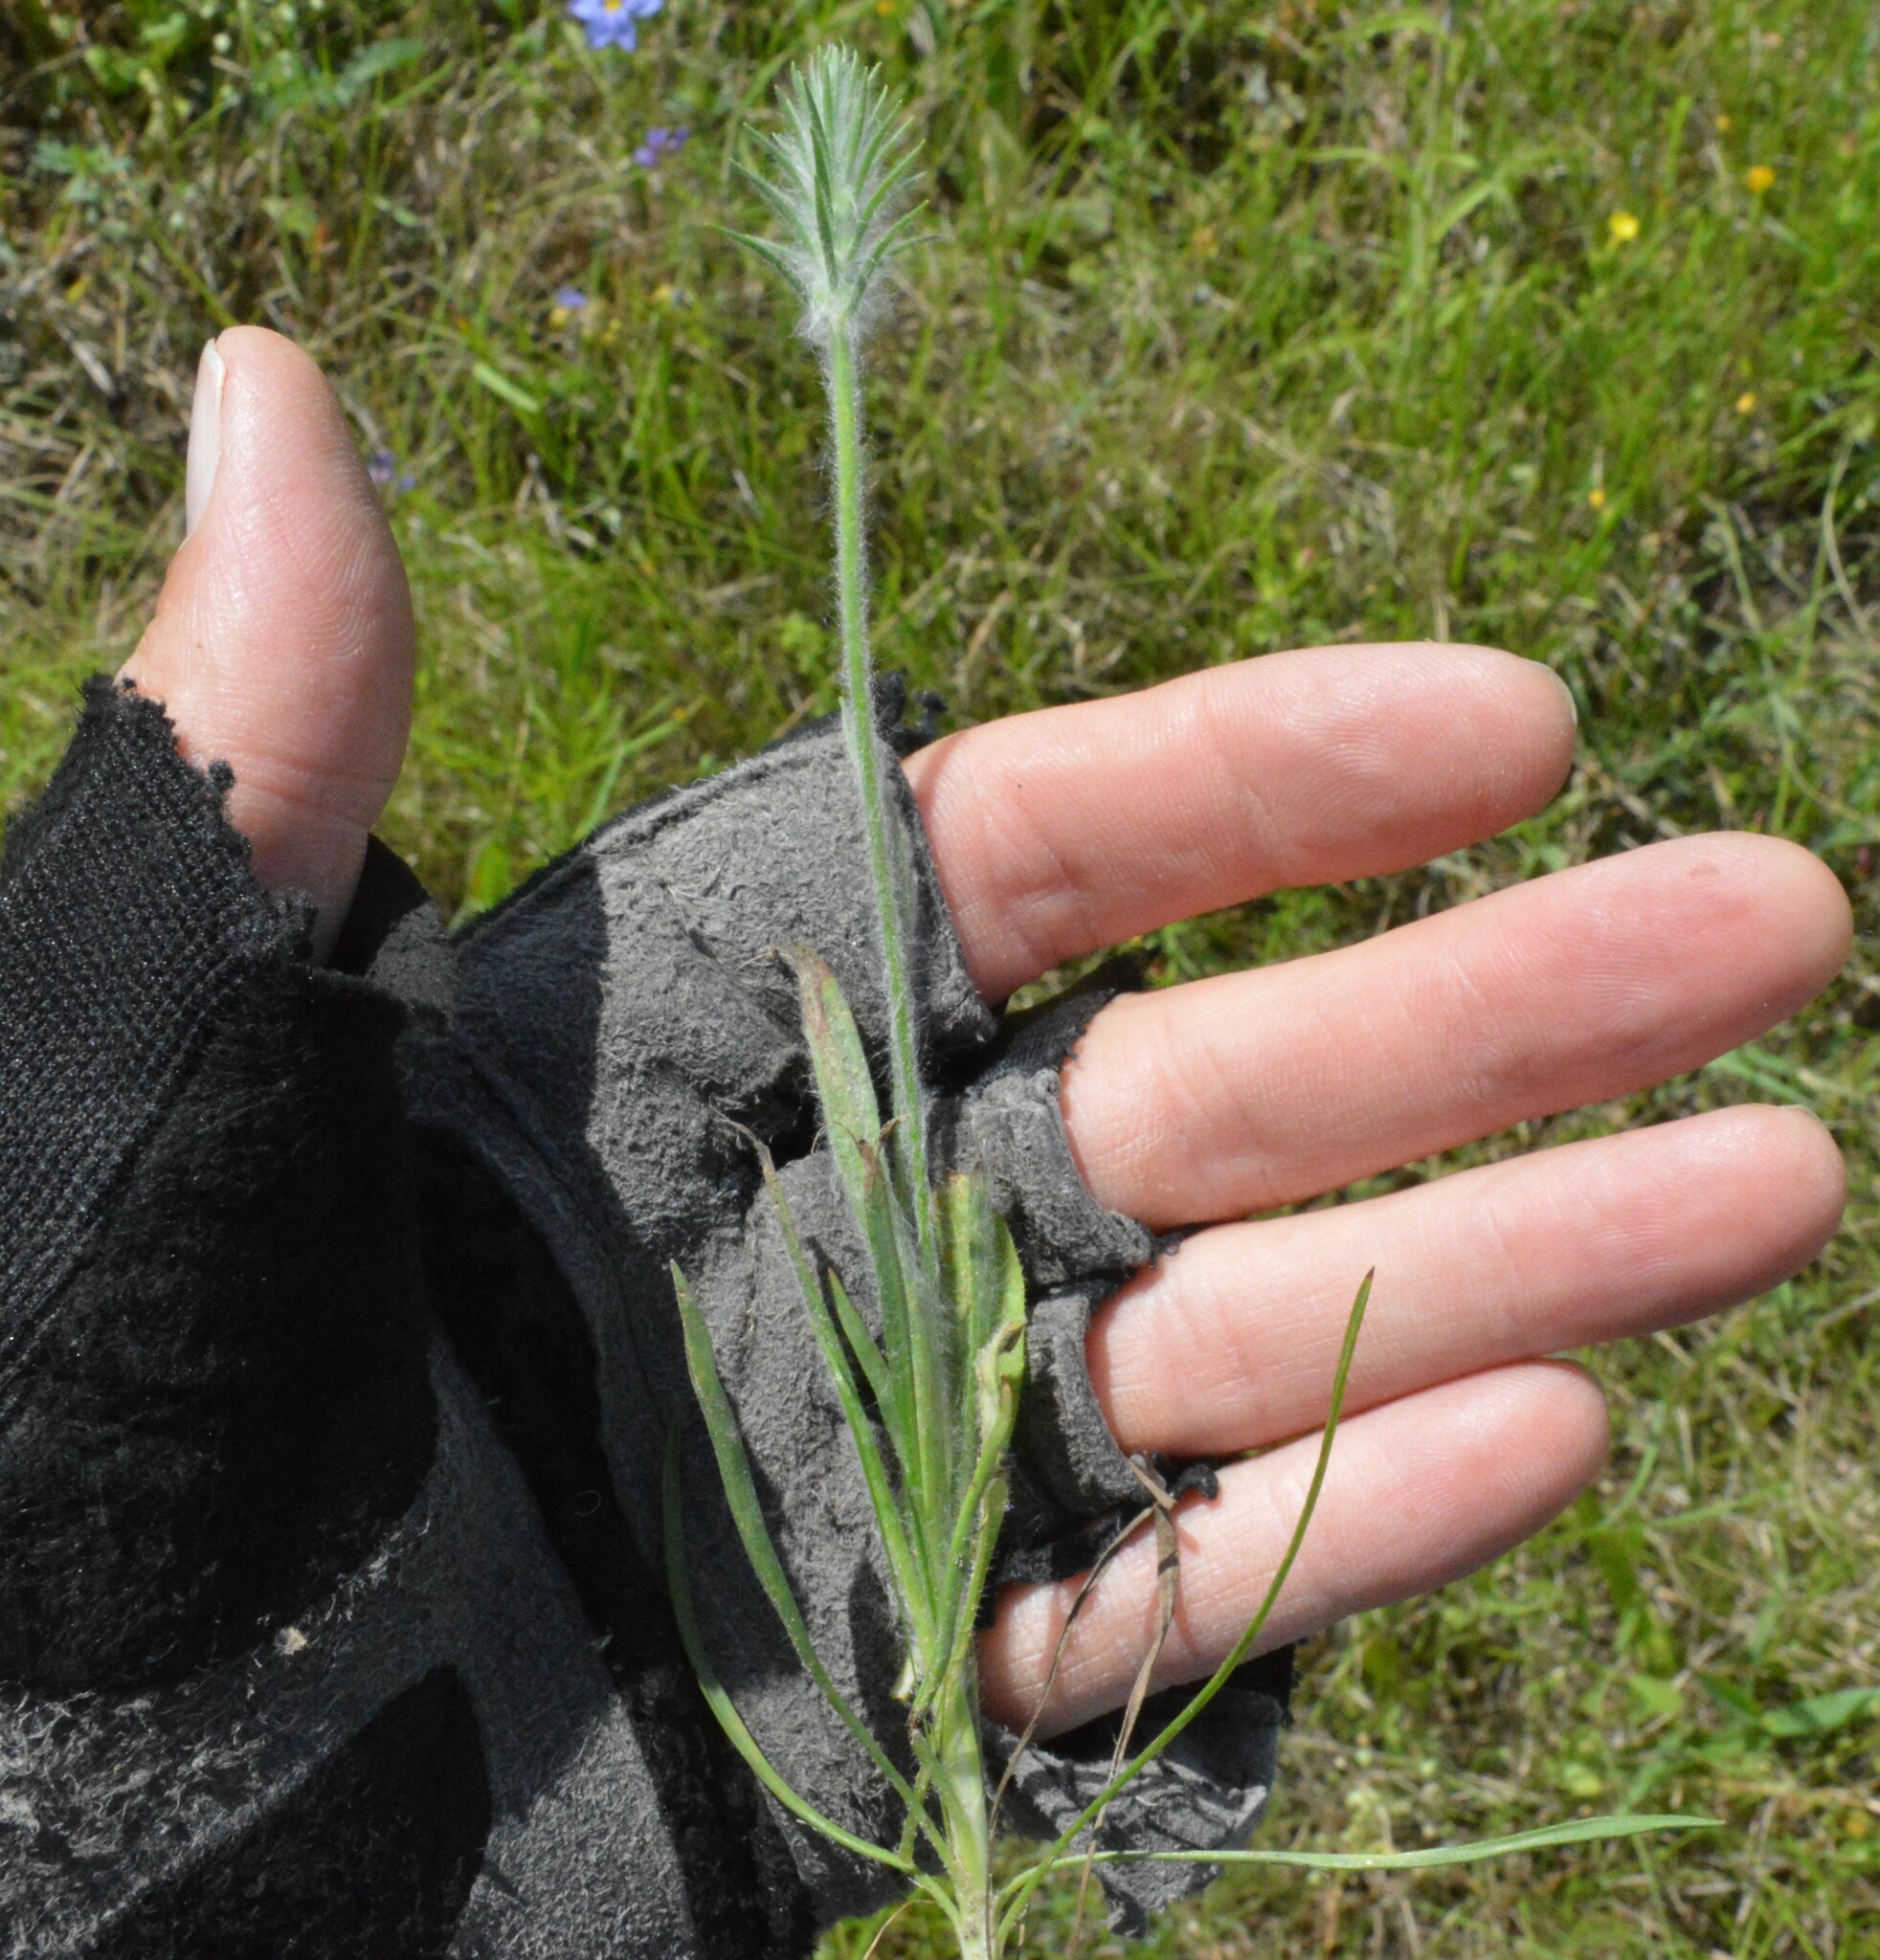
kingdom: Plantae
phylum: Tracheophyta
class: Magnoliopsida
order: Lamiales
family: Plantaginaceae
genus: Plantago
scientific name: Plantago aristata
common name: Bracted plantain
